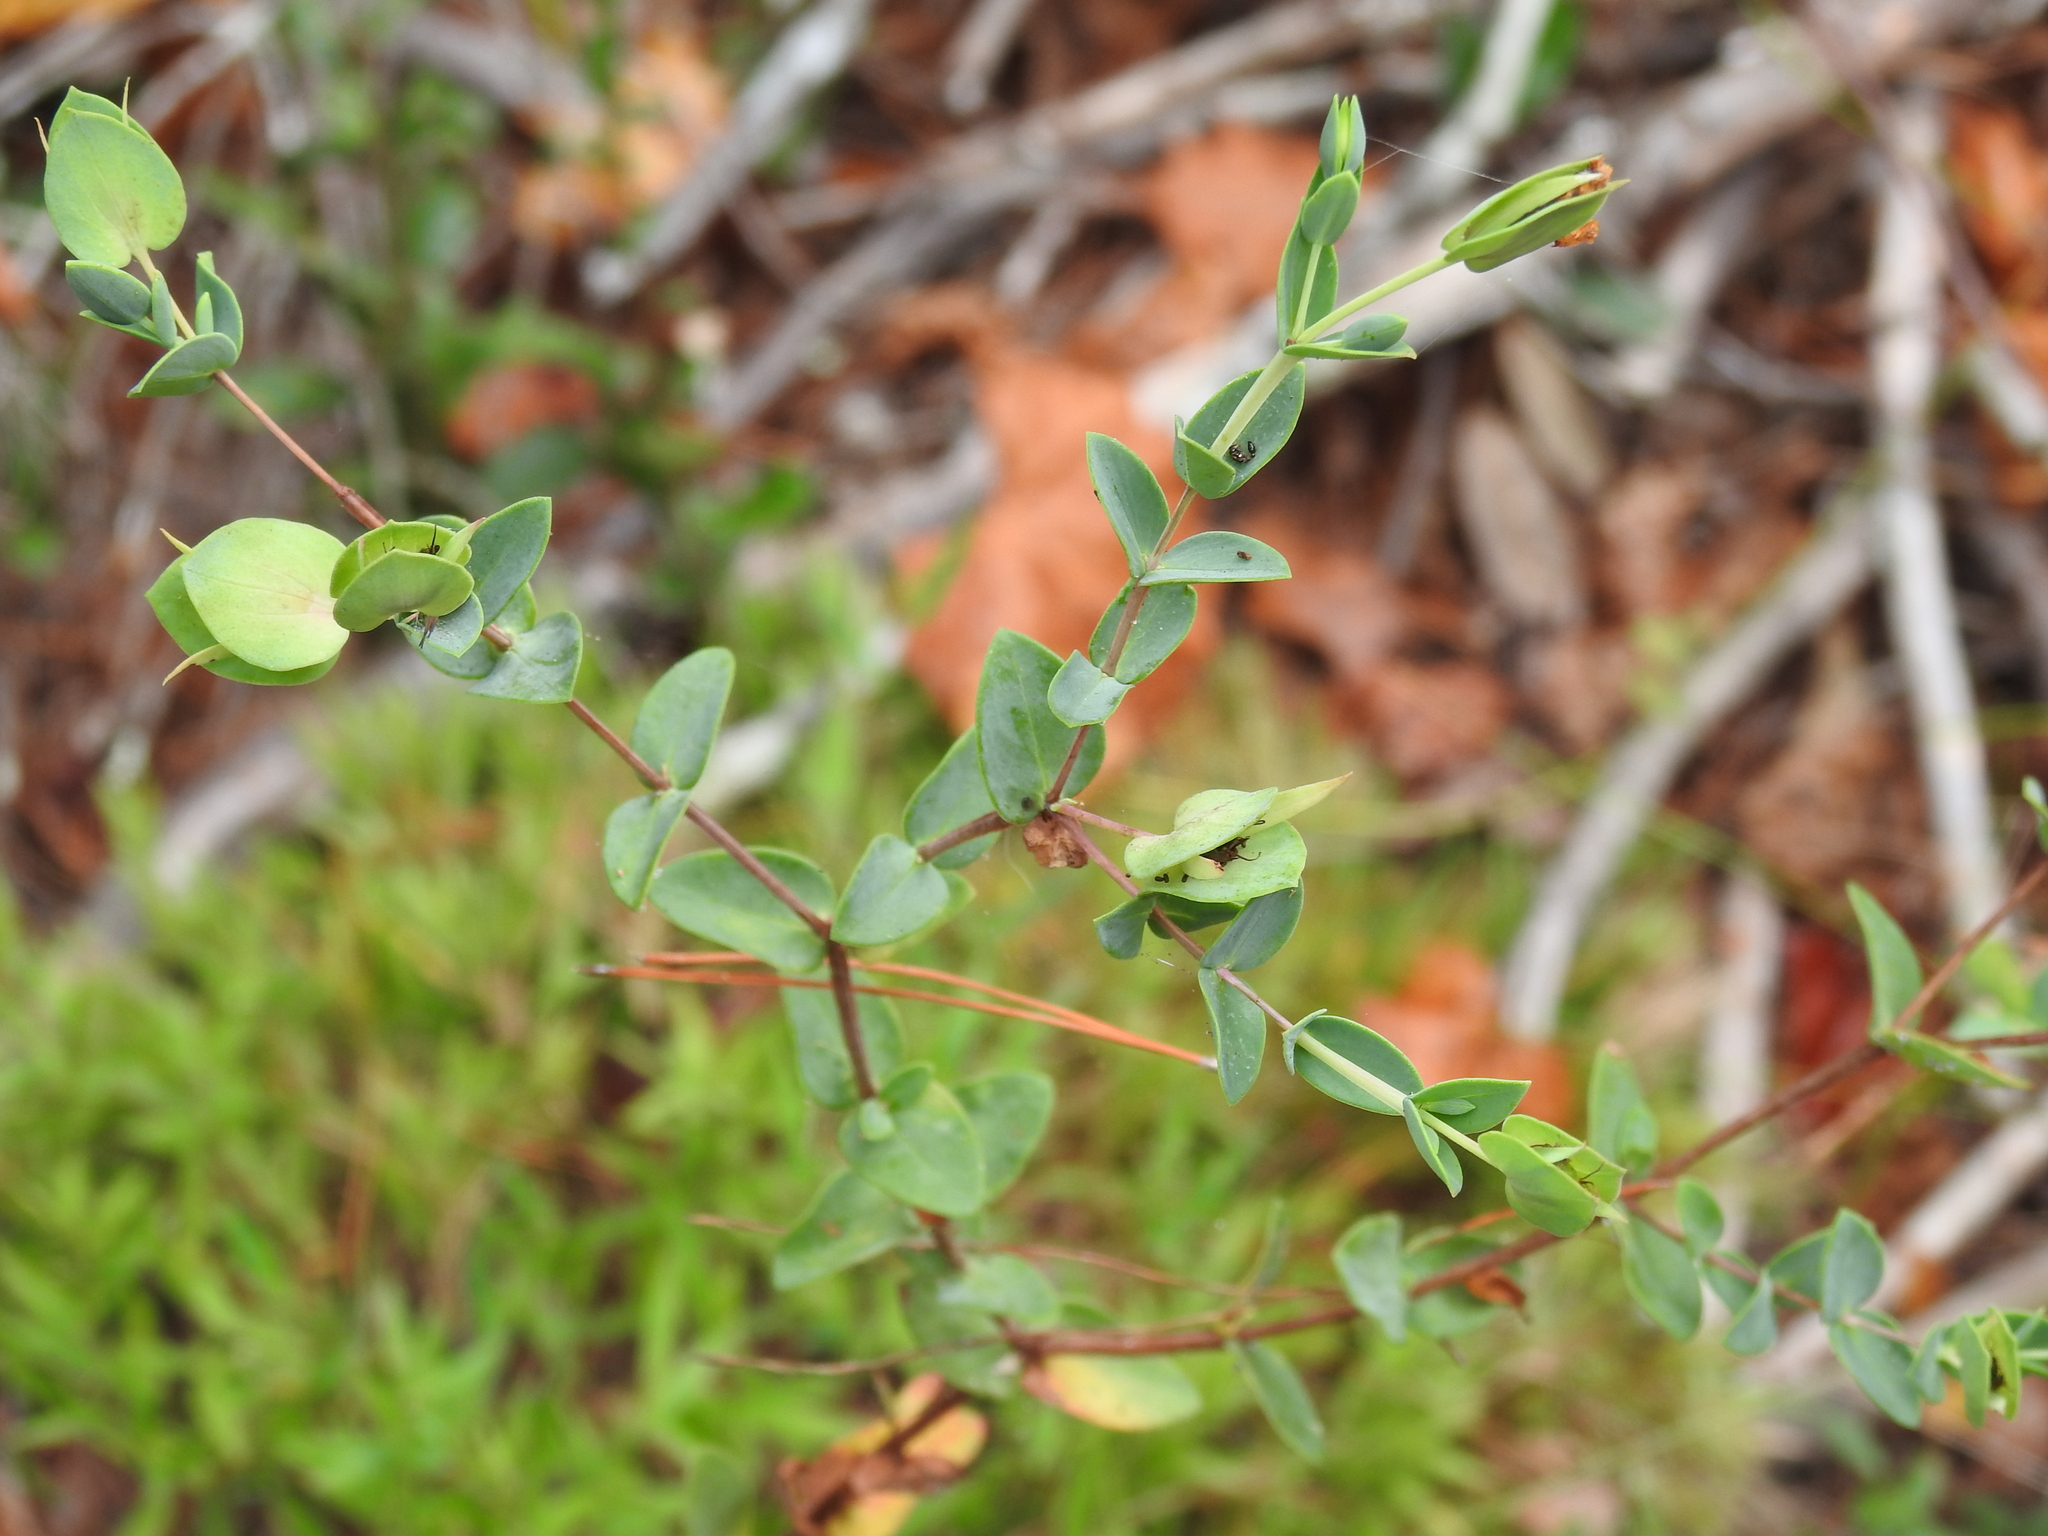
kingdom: Plantae
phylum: Tracheophyta
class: Magnoliopsida
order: Malpighiales
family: Hypericaceae
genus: Hypericum
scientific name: Hypericum tetrapetalum
